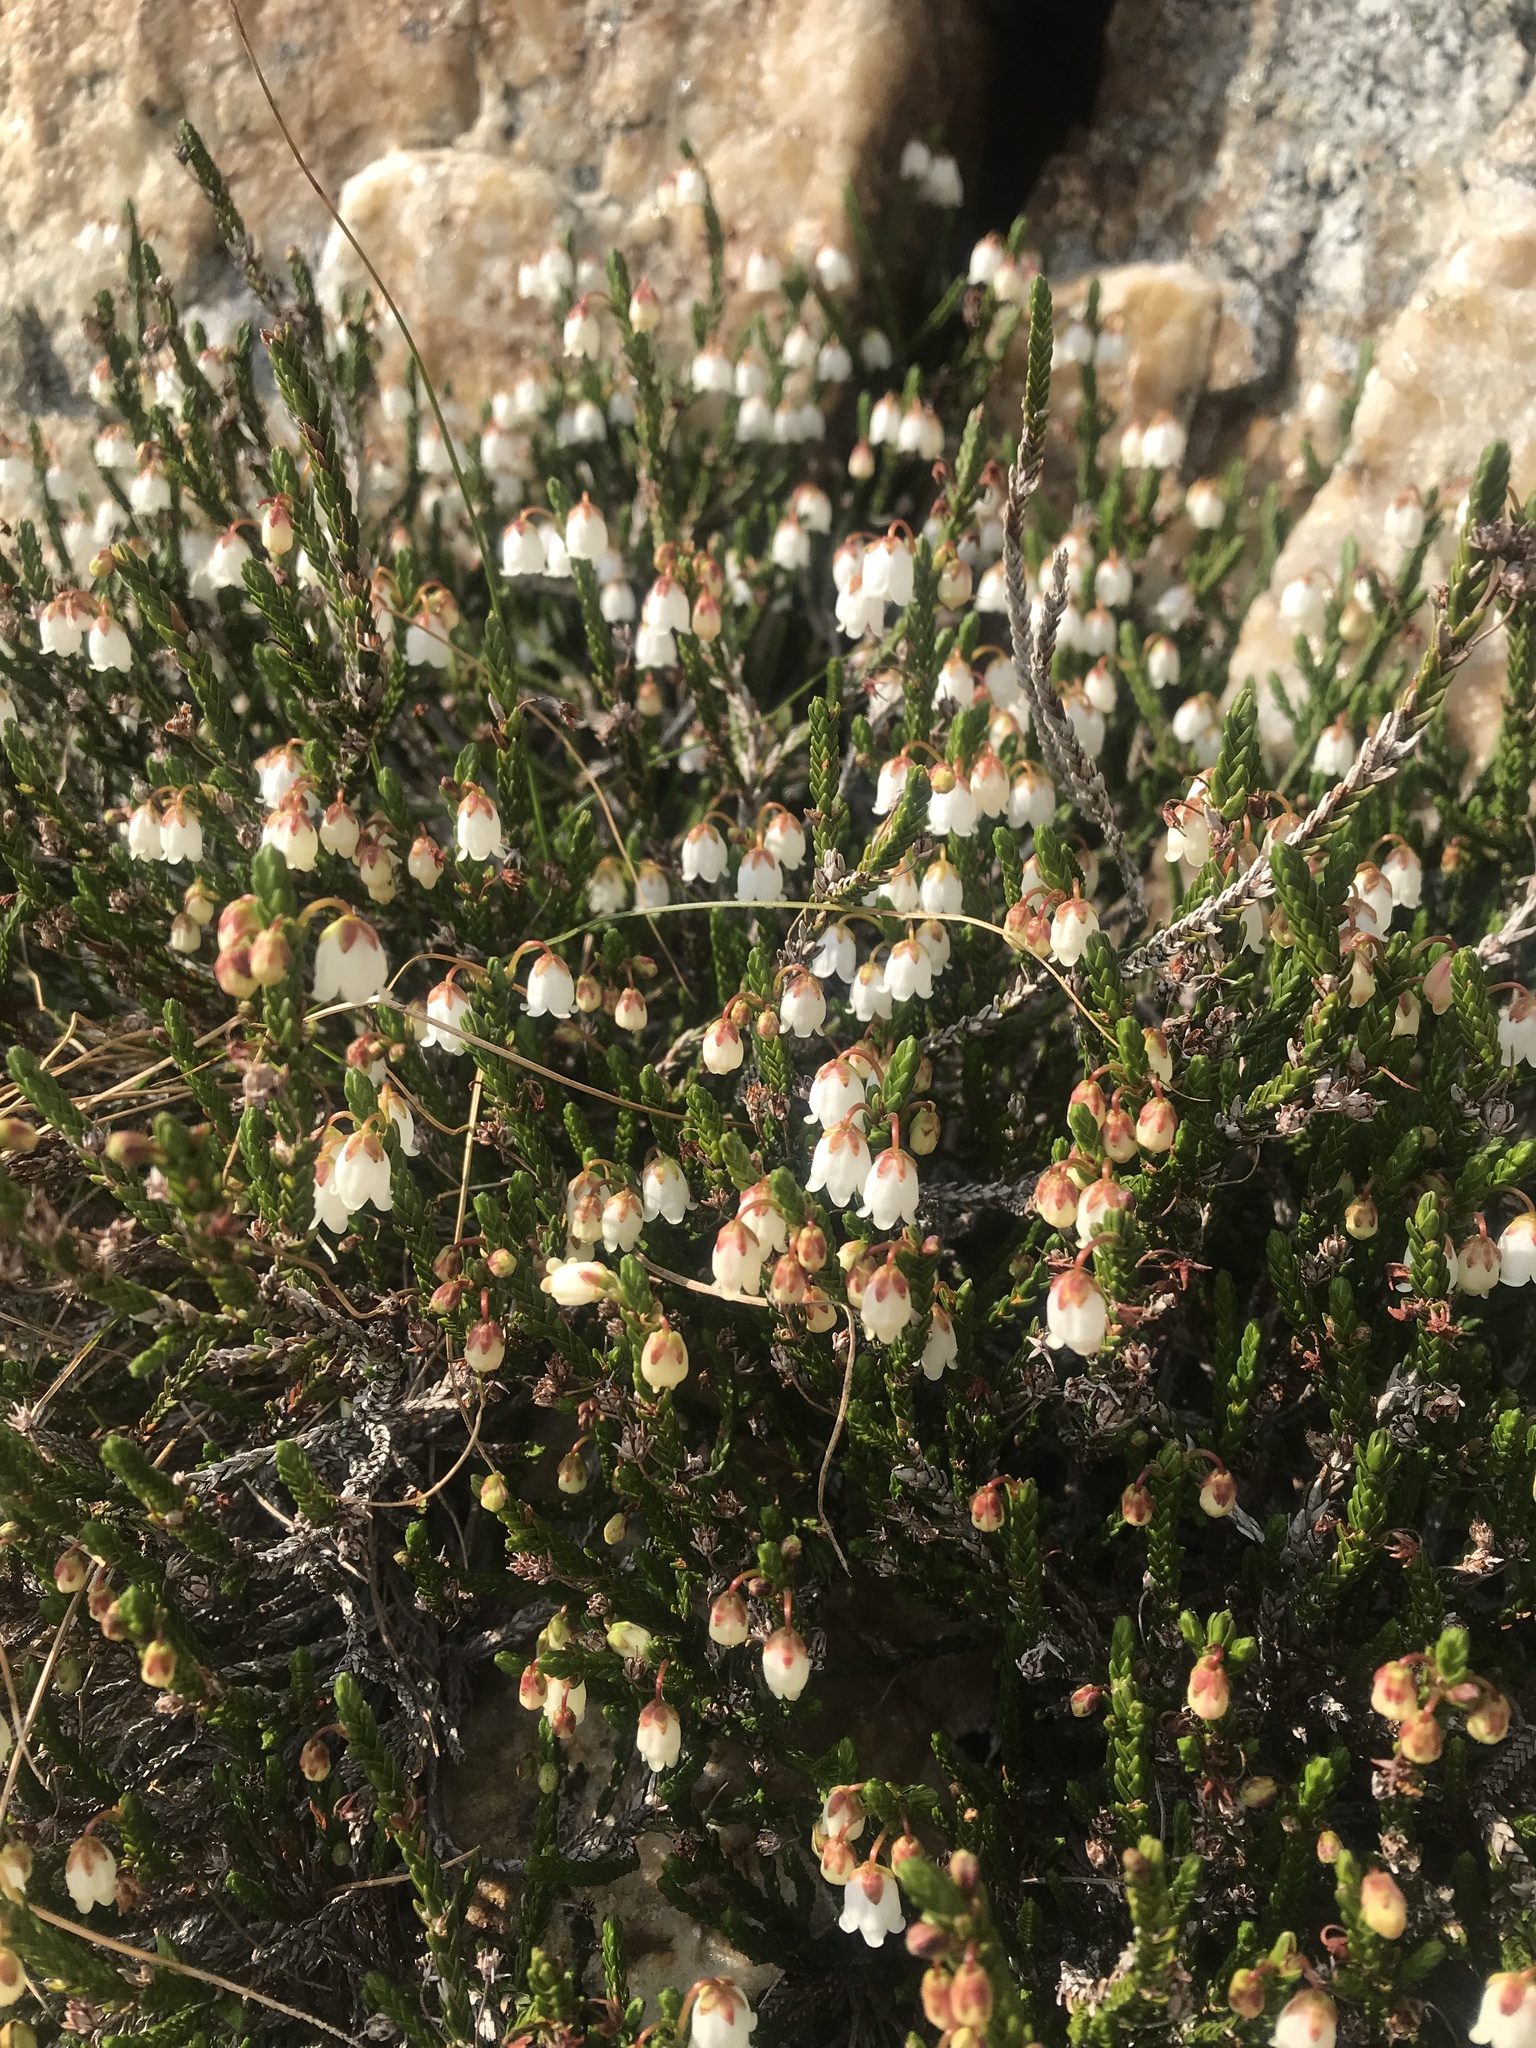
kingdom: Plantae
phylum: Tracheophyta
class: Magnoliopsida
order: Ericales
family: Ericaceae
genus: Cassiope
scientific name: Cassiope mertensiana
